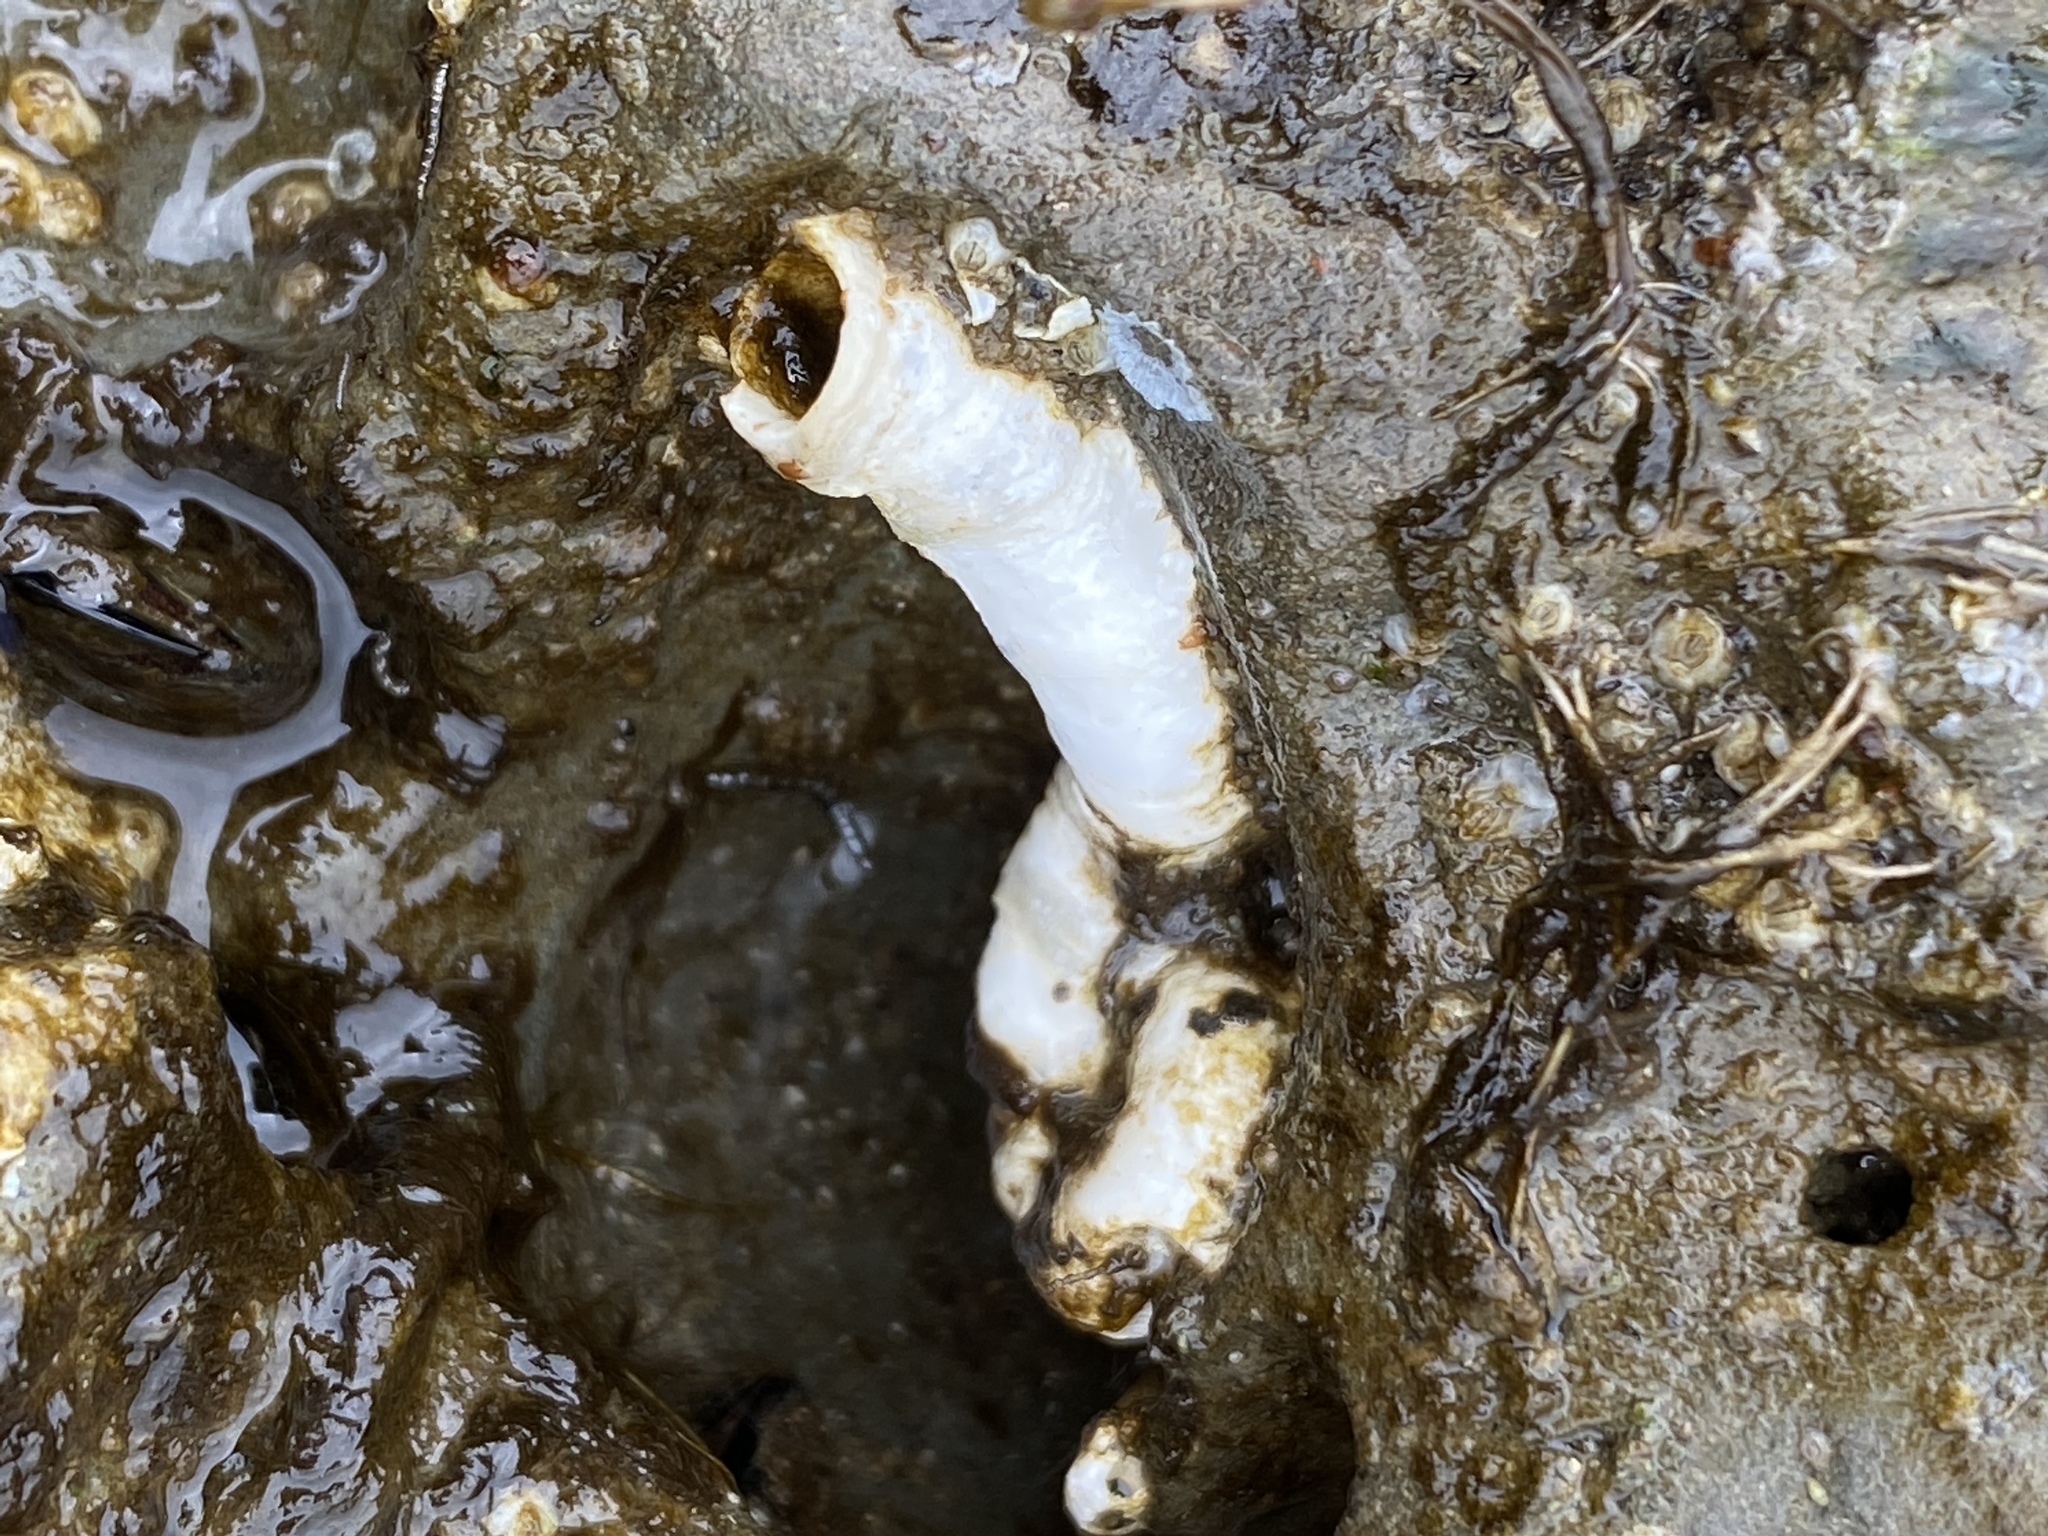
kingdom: Animalia
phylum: Annelida
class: Polychaeta
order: Sabellida
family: Serpulidae
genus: Serpula
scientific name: Serpula columbiana
